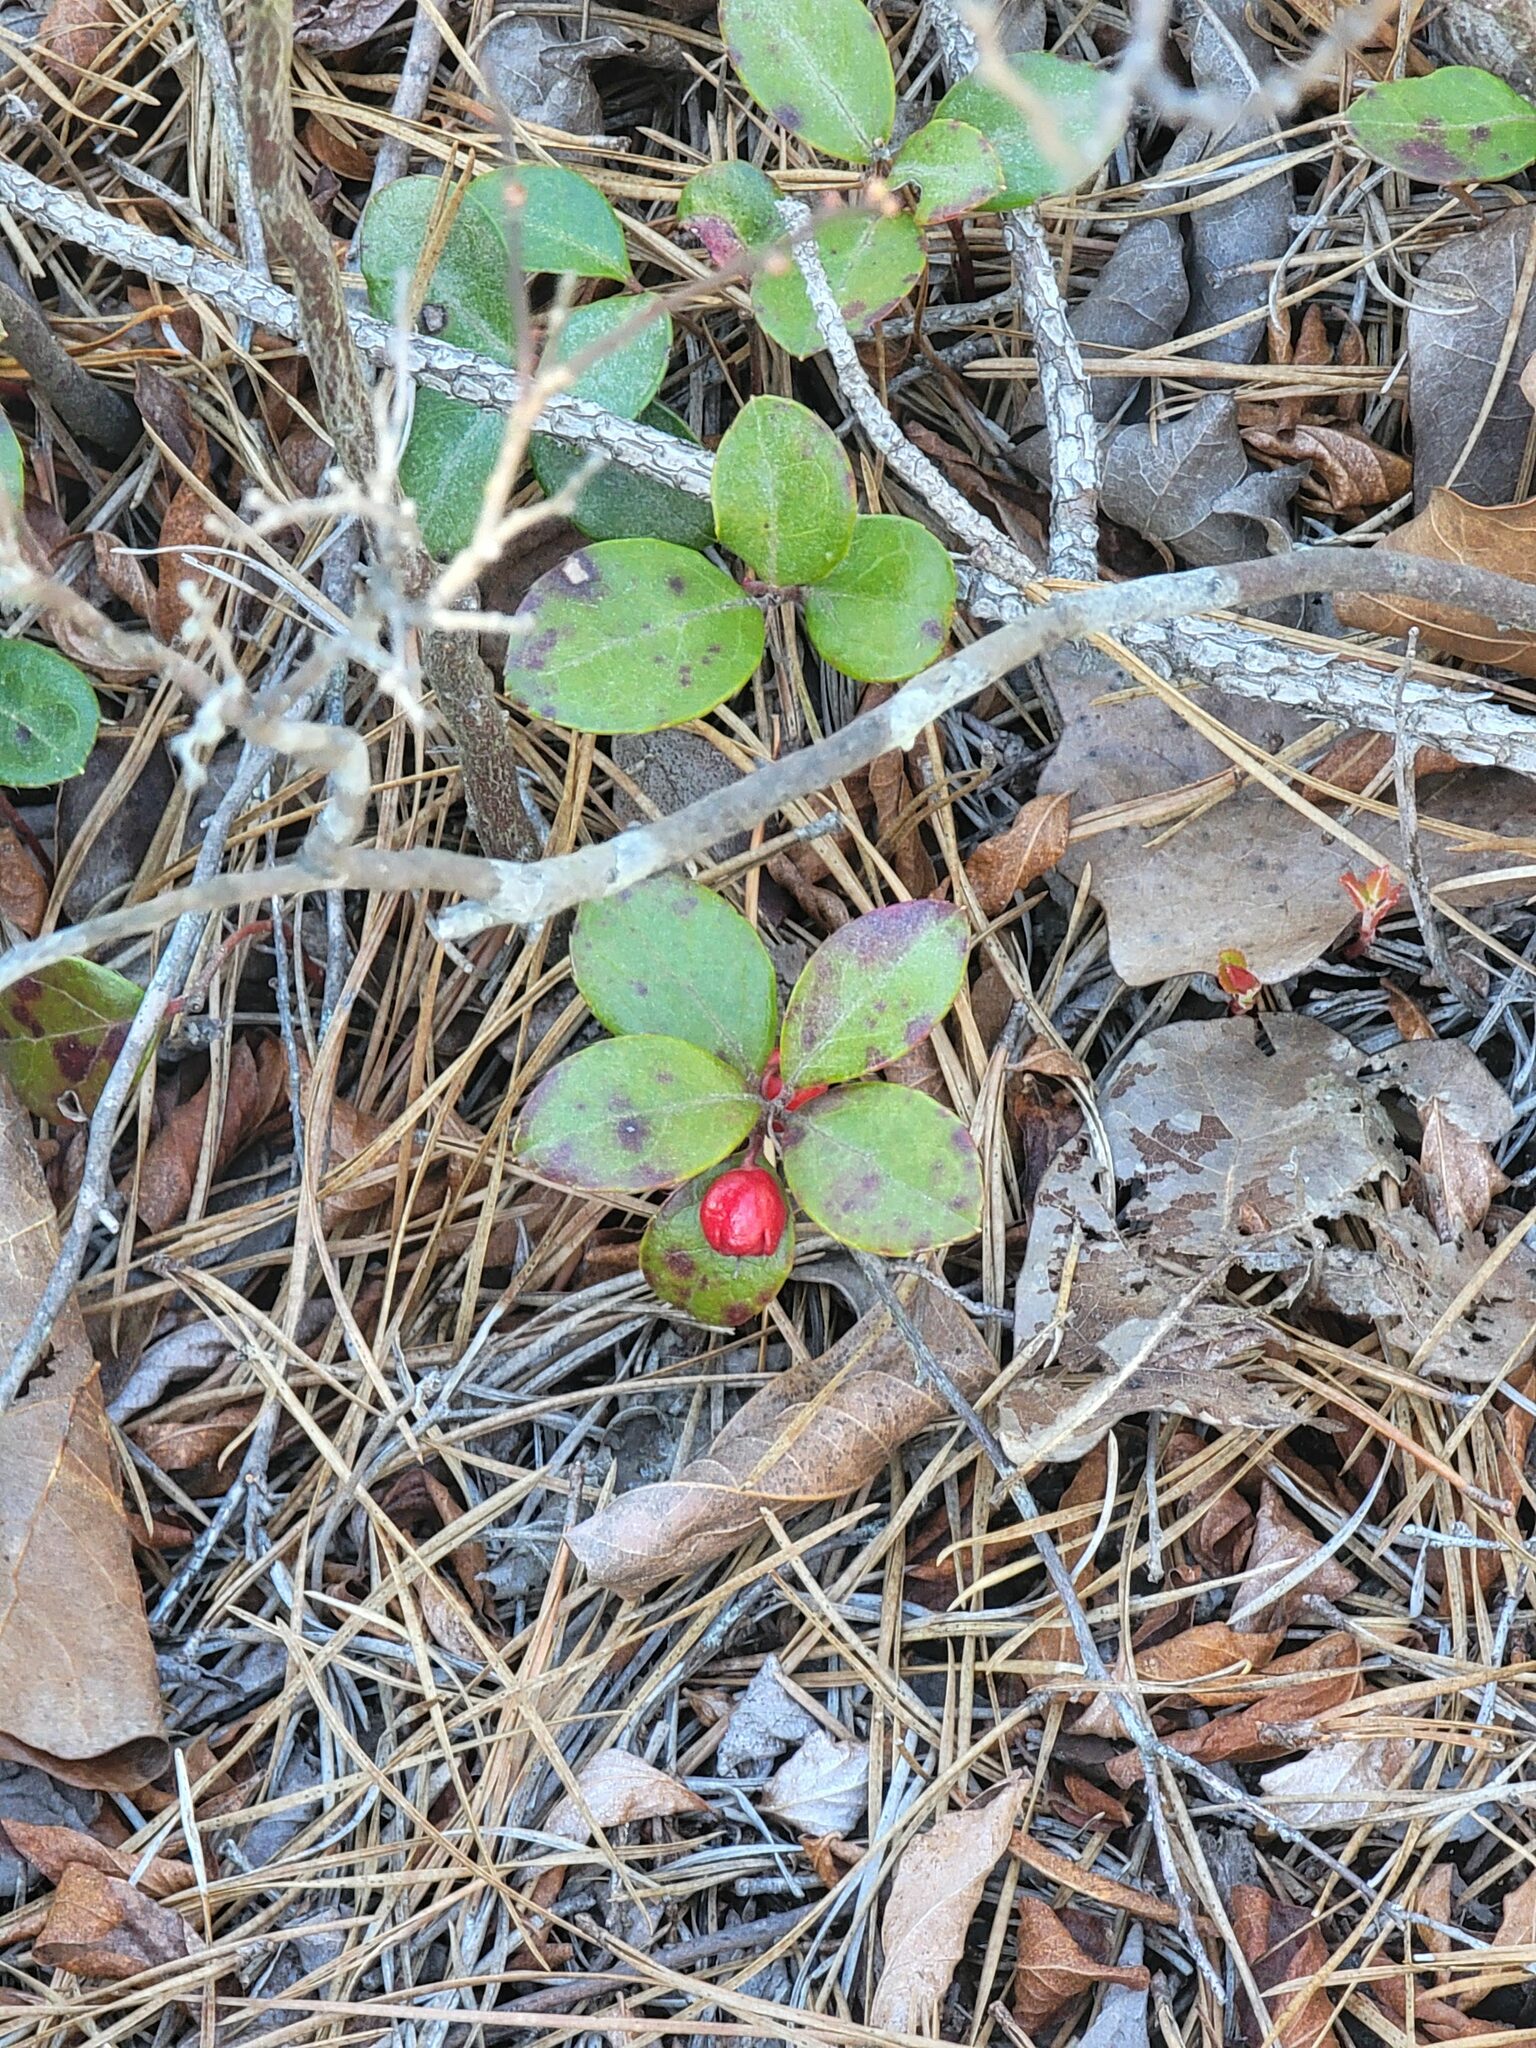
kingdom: Plantae
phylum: Tracheophyta
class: Magnoliopsida
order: Ericales
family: Ericaceae
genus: Gaultheria
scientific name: Gaultheria procumbens
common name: Checkerberry
